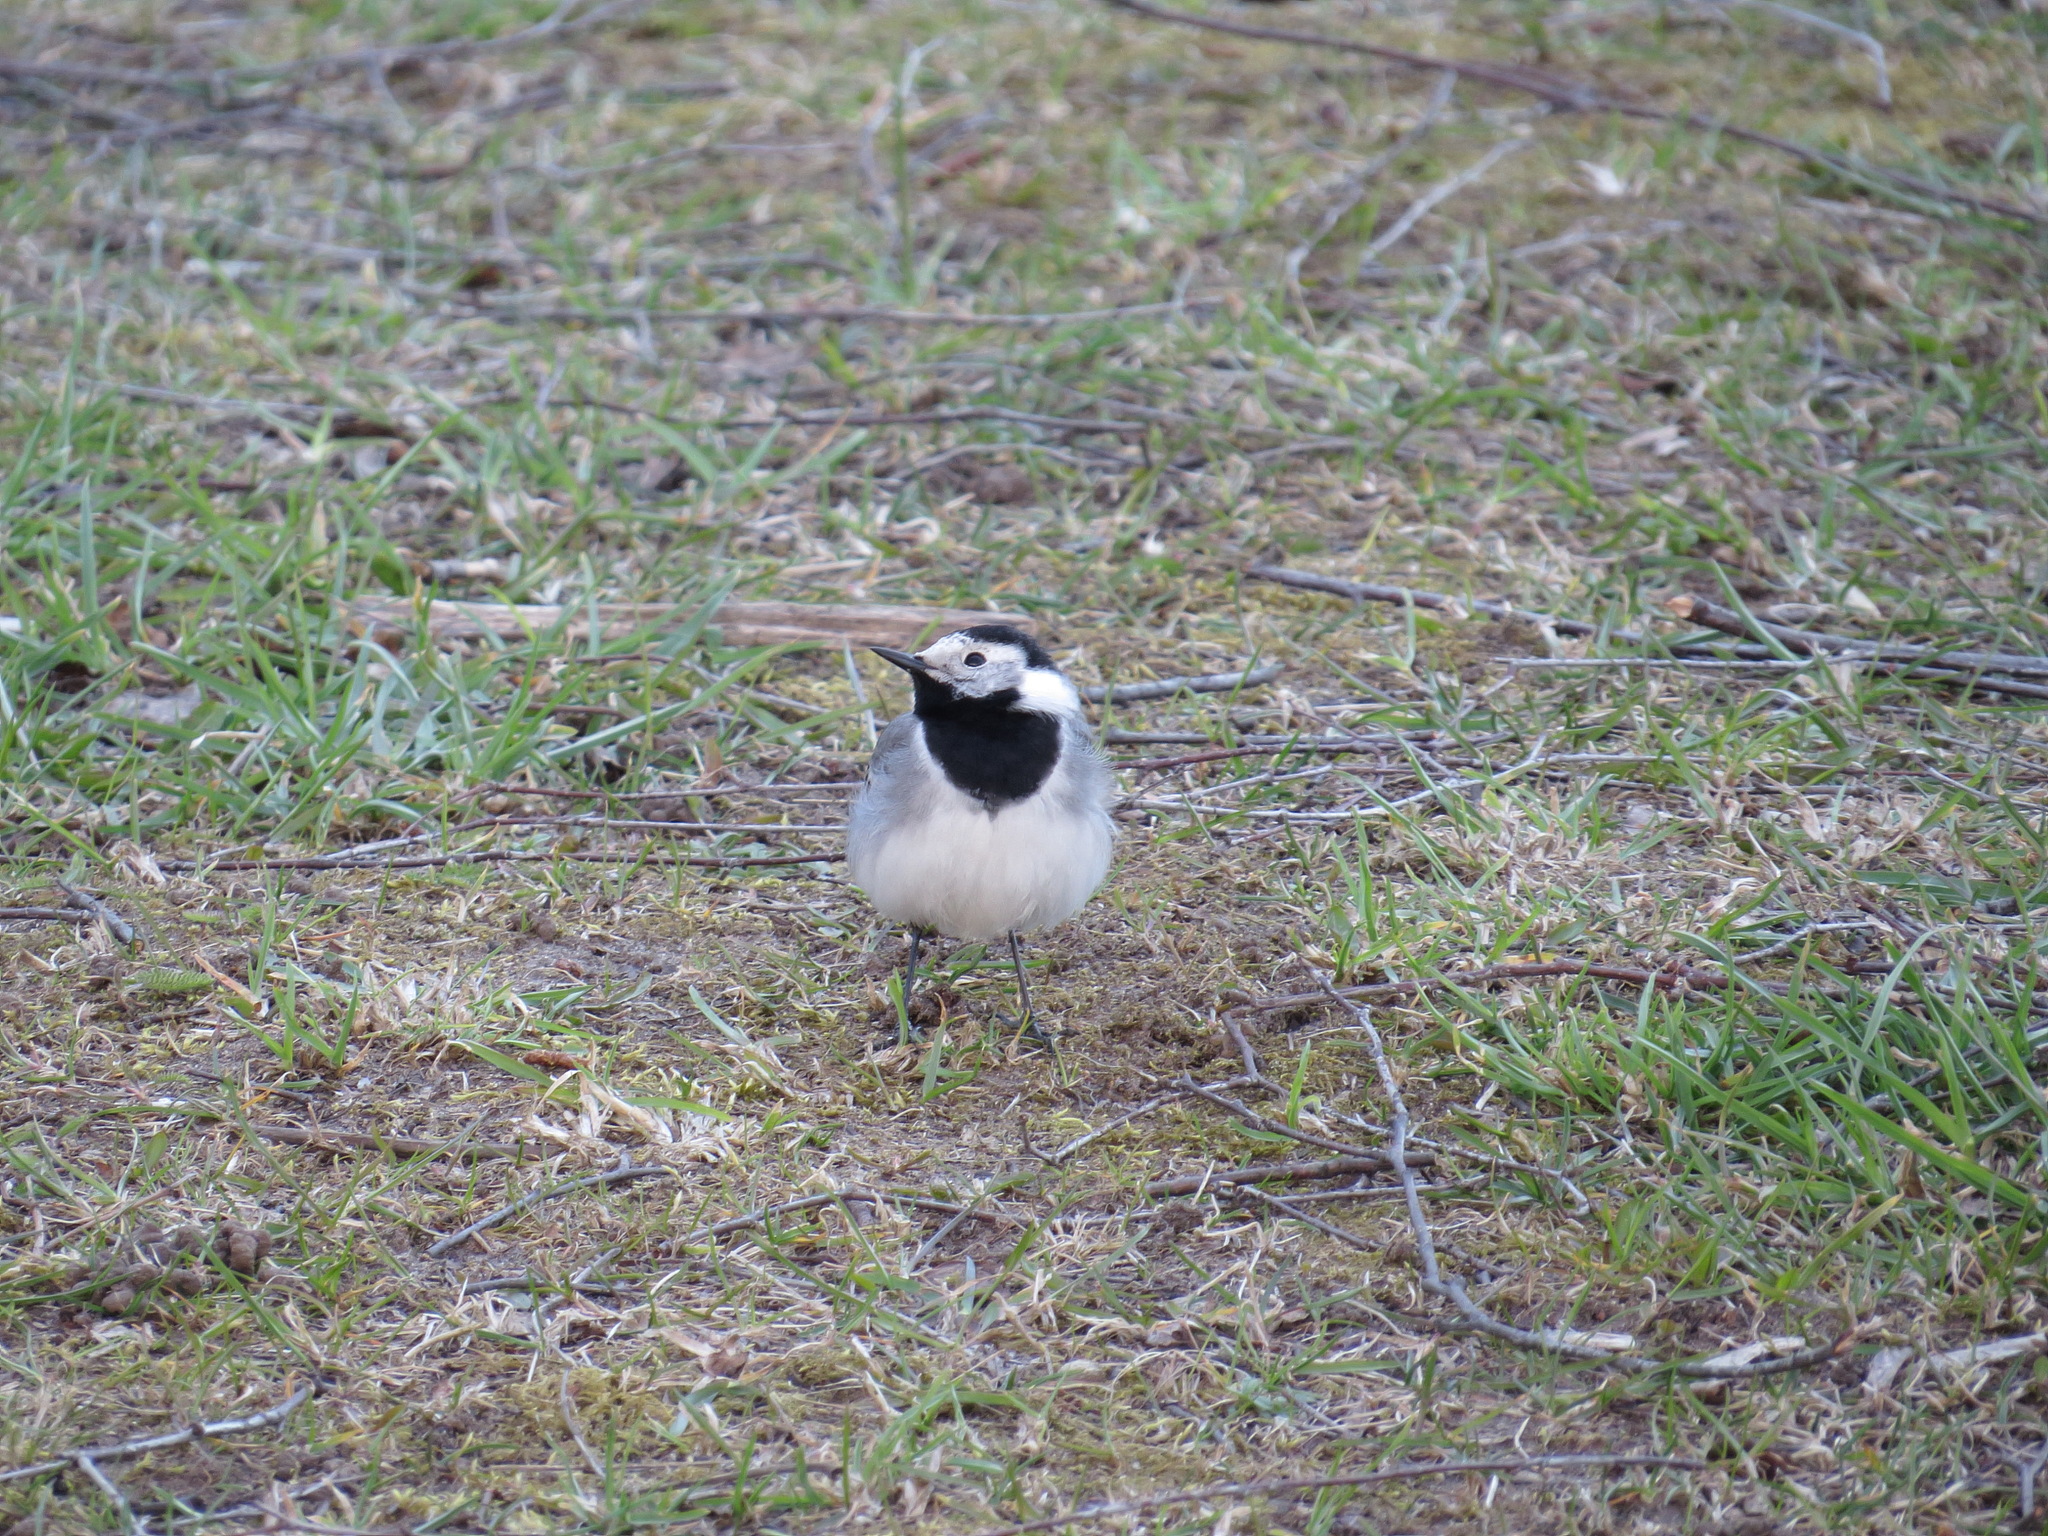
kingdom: Animalia
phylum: Chordata
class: Aves
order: Passeriformes
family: Motacillidae
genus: Motacilla
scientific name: Motacilla alba
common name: White wagtail
